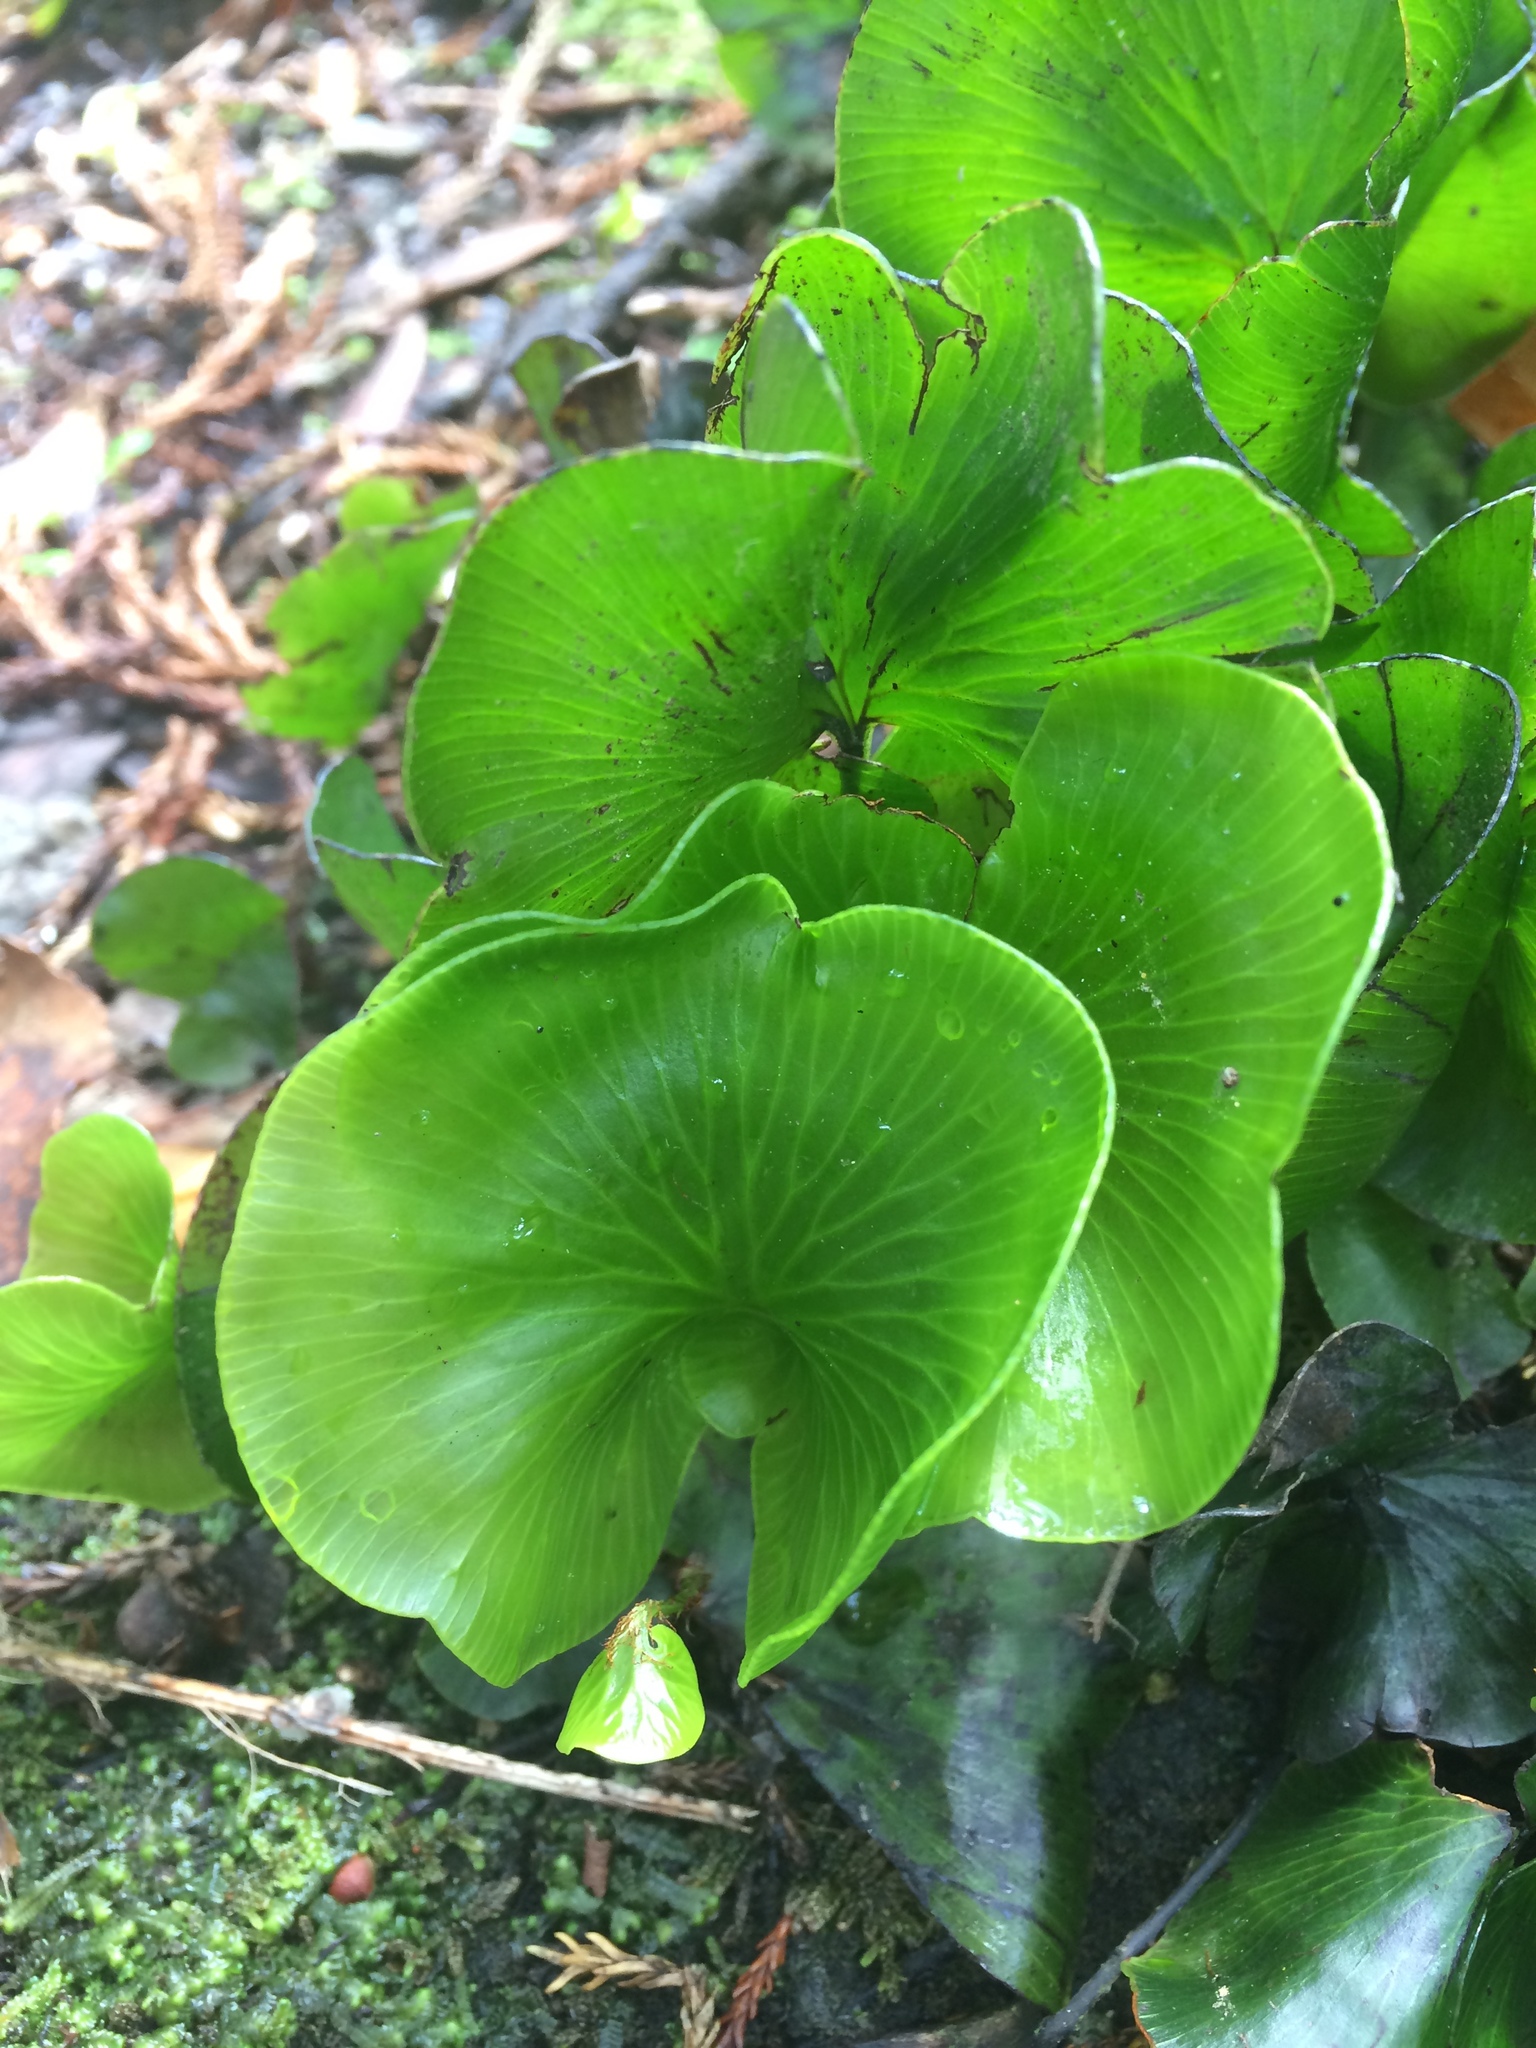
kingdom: Plantae
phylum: Tracheophyta
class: Polypodiopsida
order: Hymenophyllales
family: Hymenophyllaceae
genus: Hymenophyllum
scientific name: Hymenophyllum nephrophyllum
